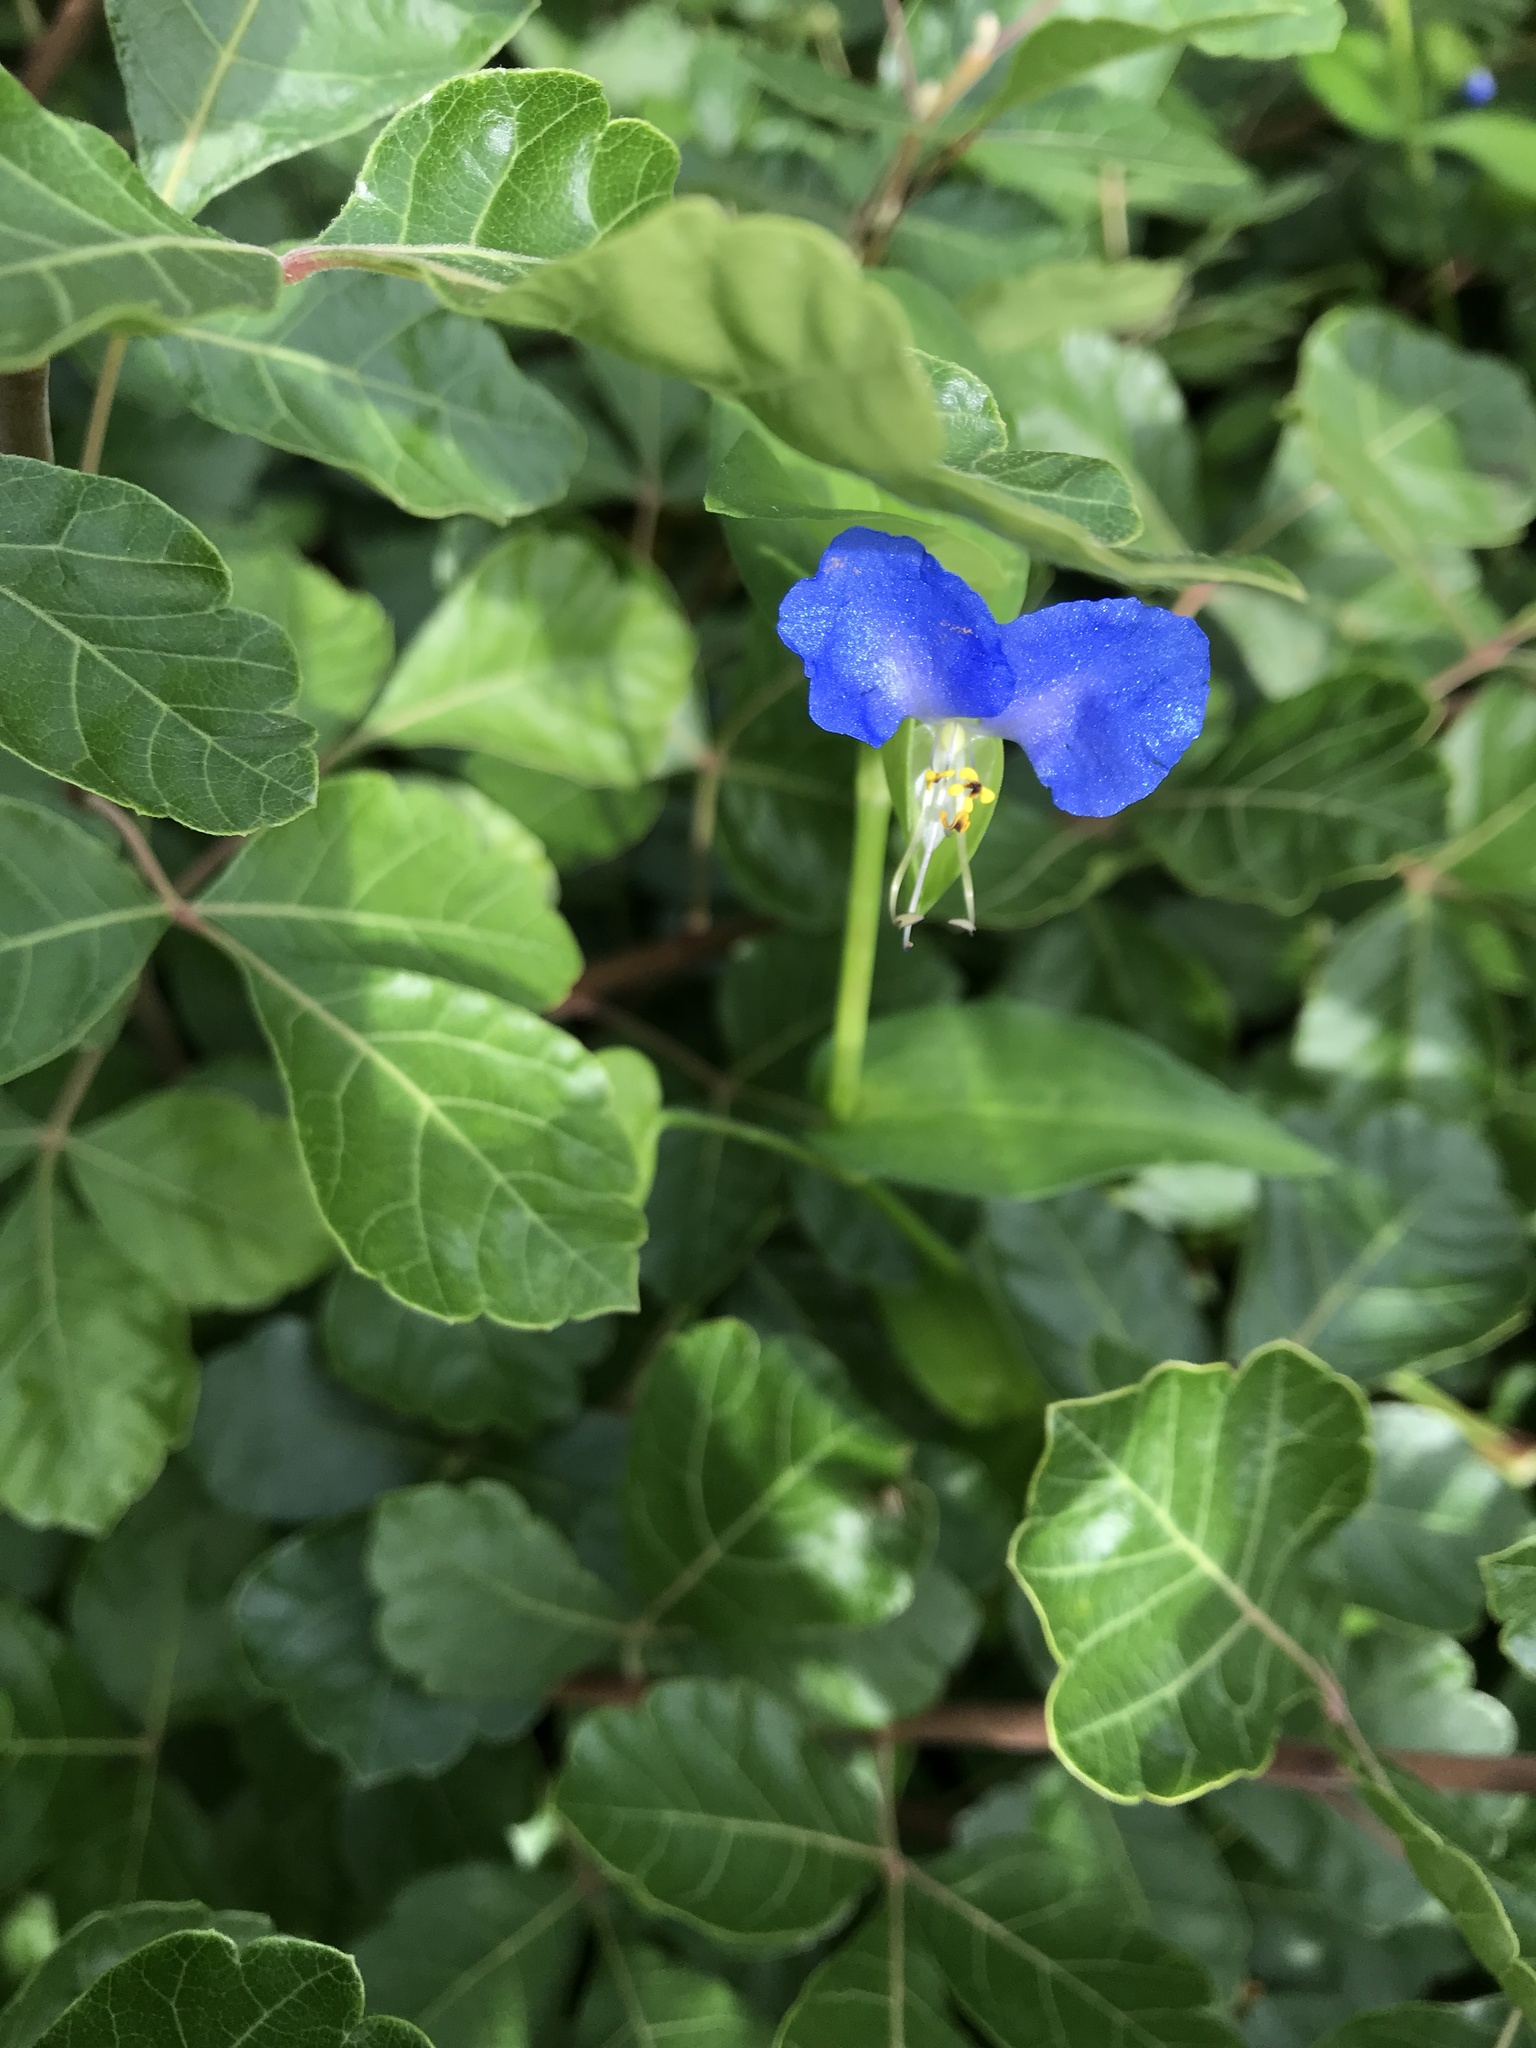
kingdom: Plantae
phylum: Tracheophyta
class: Liliopsida
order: Commelinales
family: Commelinaceae
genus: Commelina
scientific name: Commelina communis
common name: Asiatic dayflower
